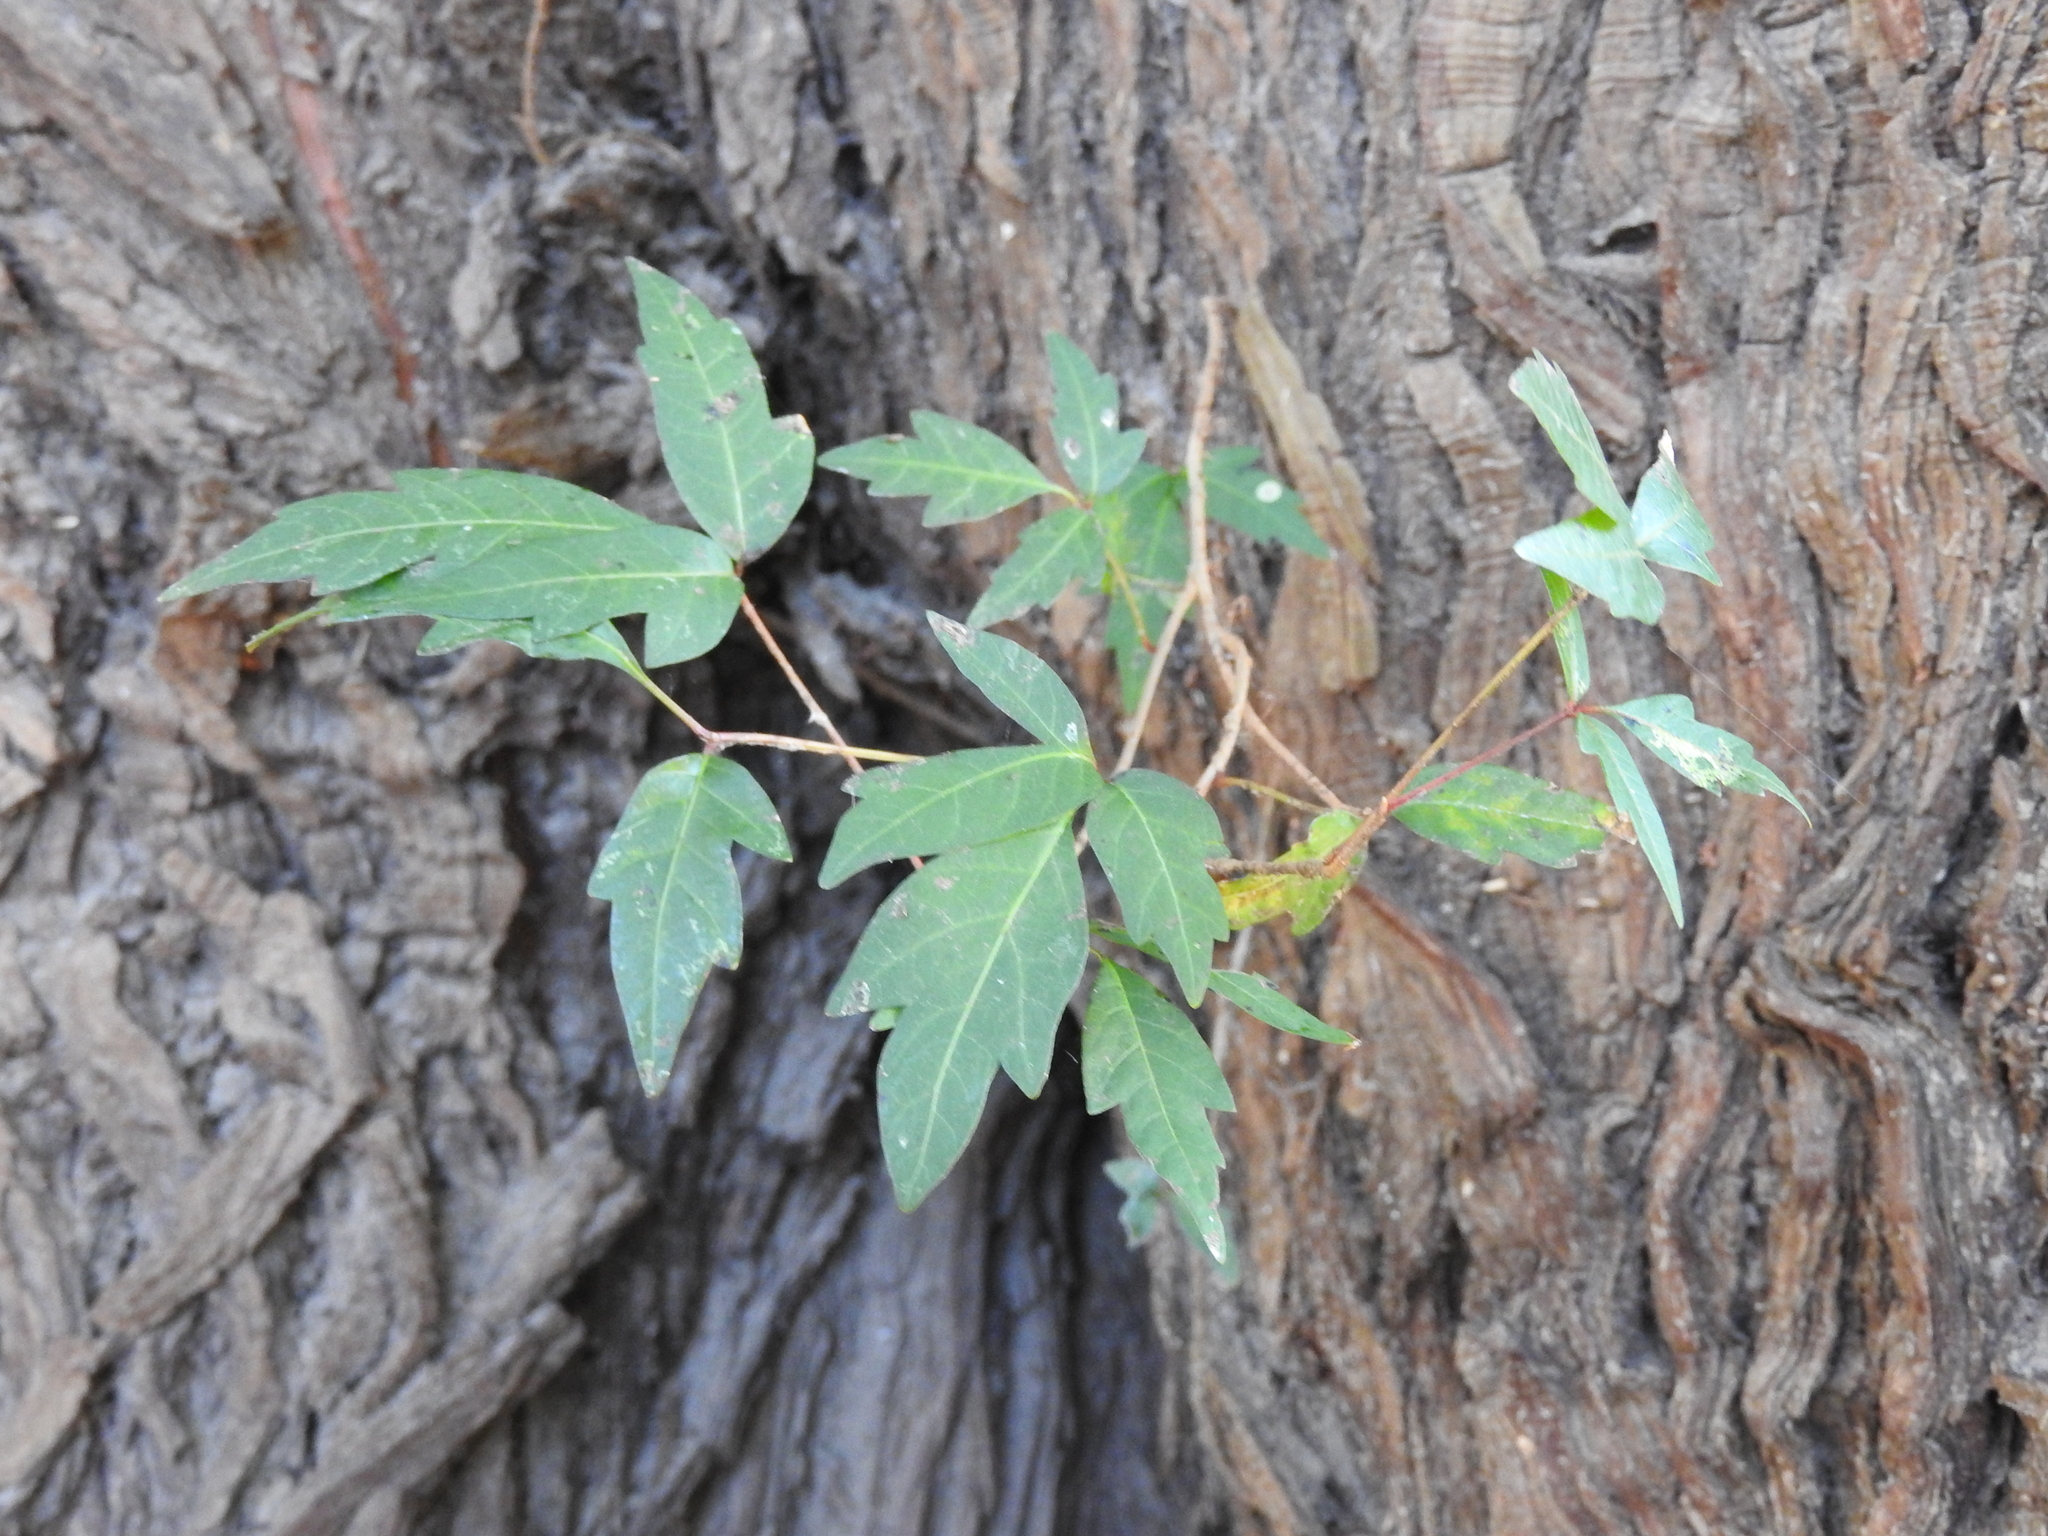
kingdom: Plantae
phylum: Tracheophyta
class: Magnoliopsida
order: Sapindales
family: Anacardiaceae
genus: Toxicodendron
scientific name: Toxicodendron radicans
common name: Poison ivy
